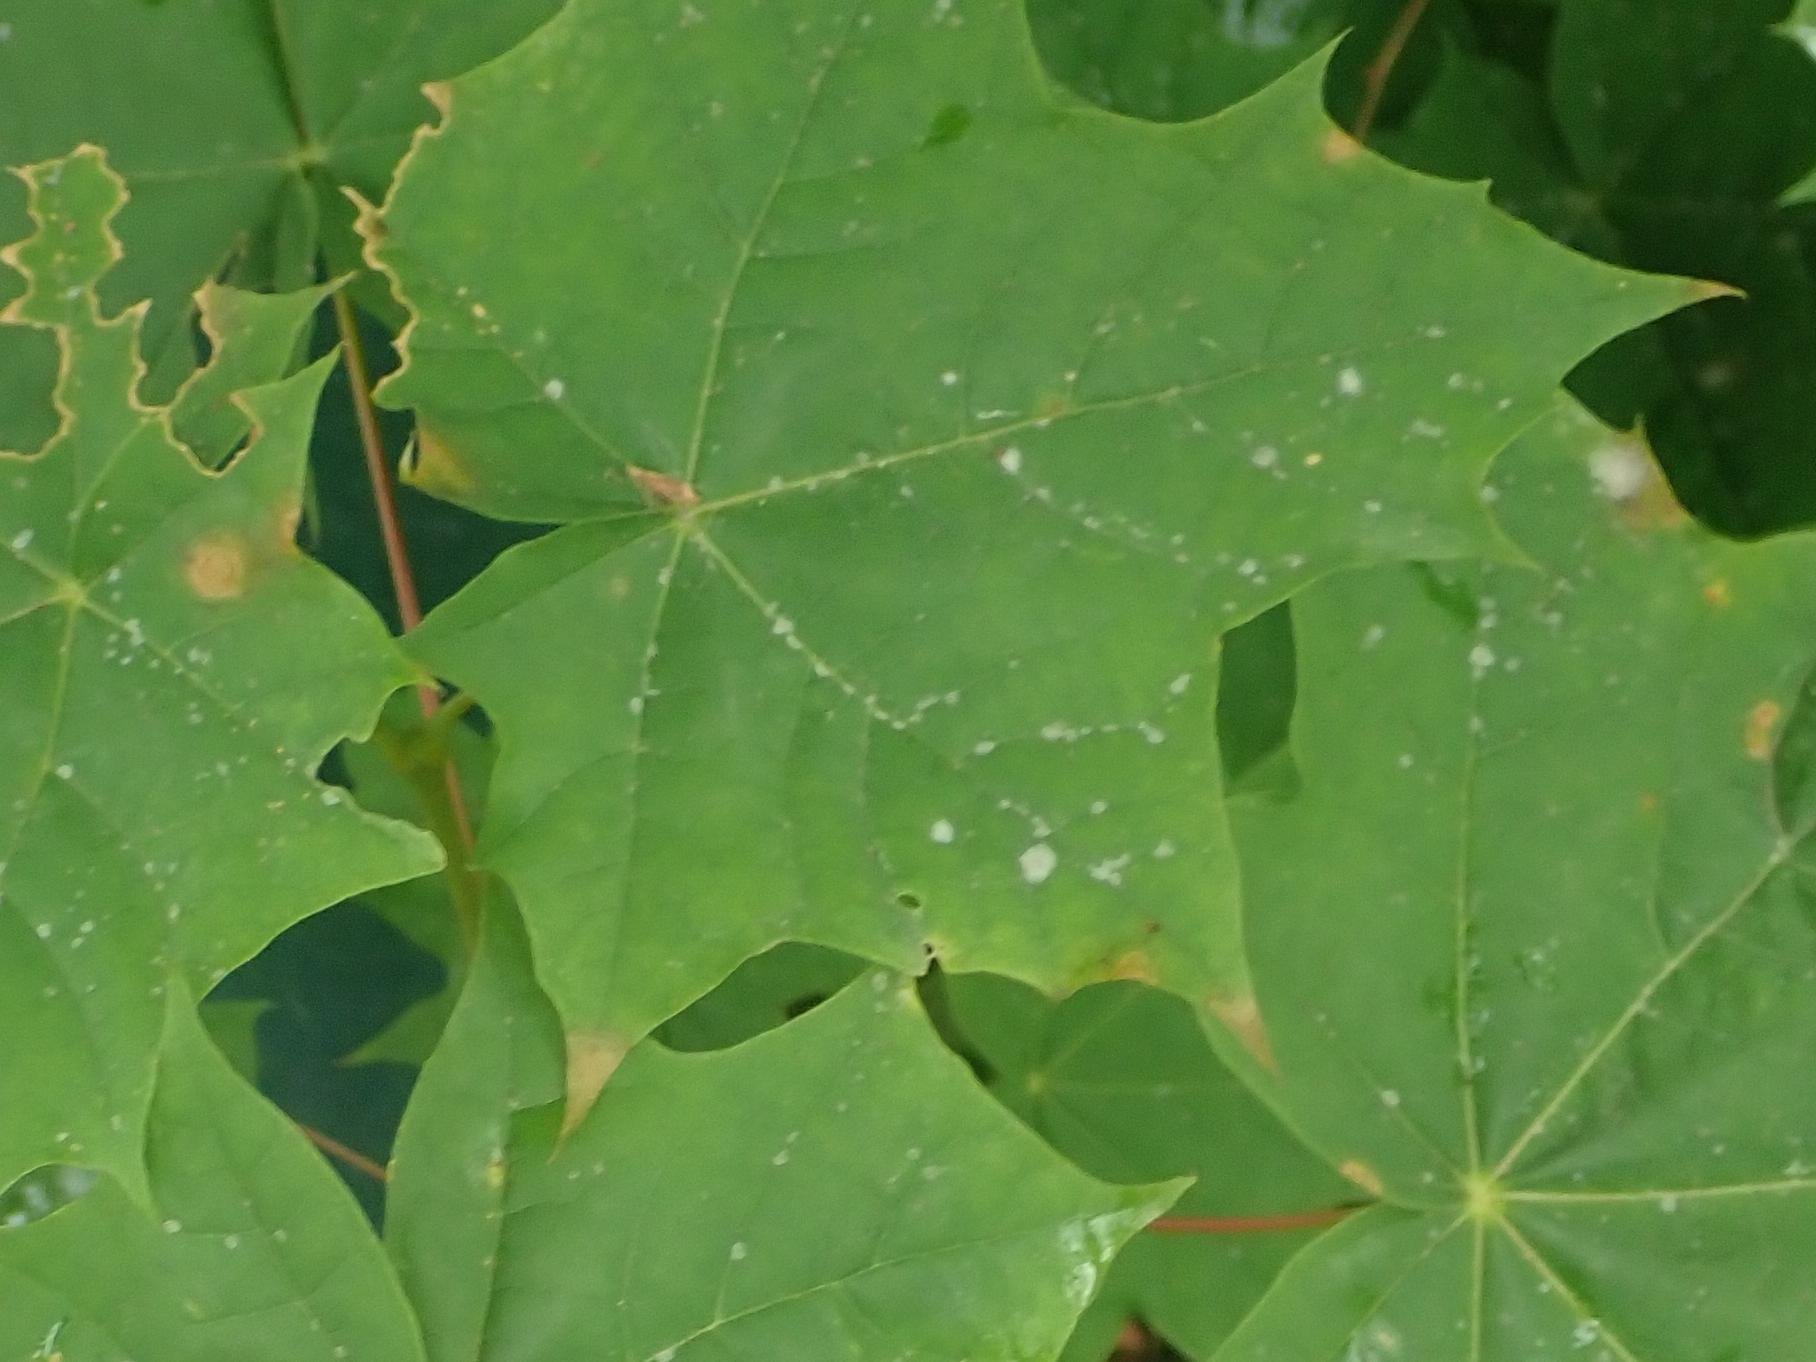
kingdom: Fungi
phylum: Ascomycota
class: Leotiomycetes
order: Helotiales
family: Erysiphaceae
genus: Sawadaea
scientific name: Sawadaea tulasnei
